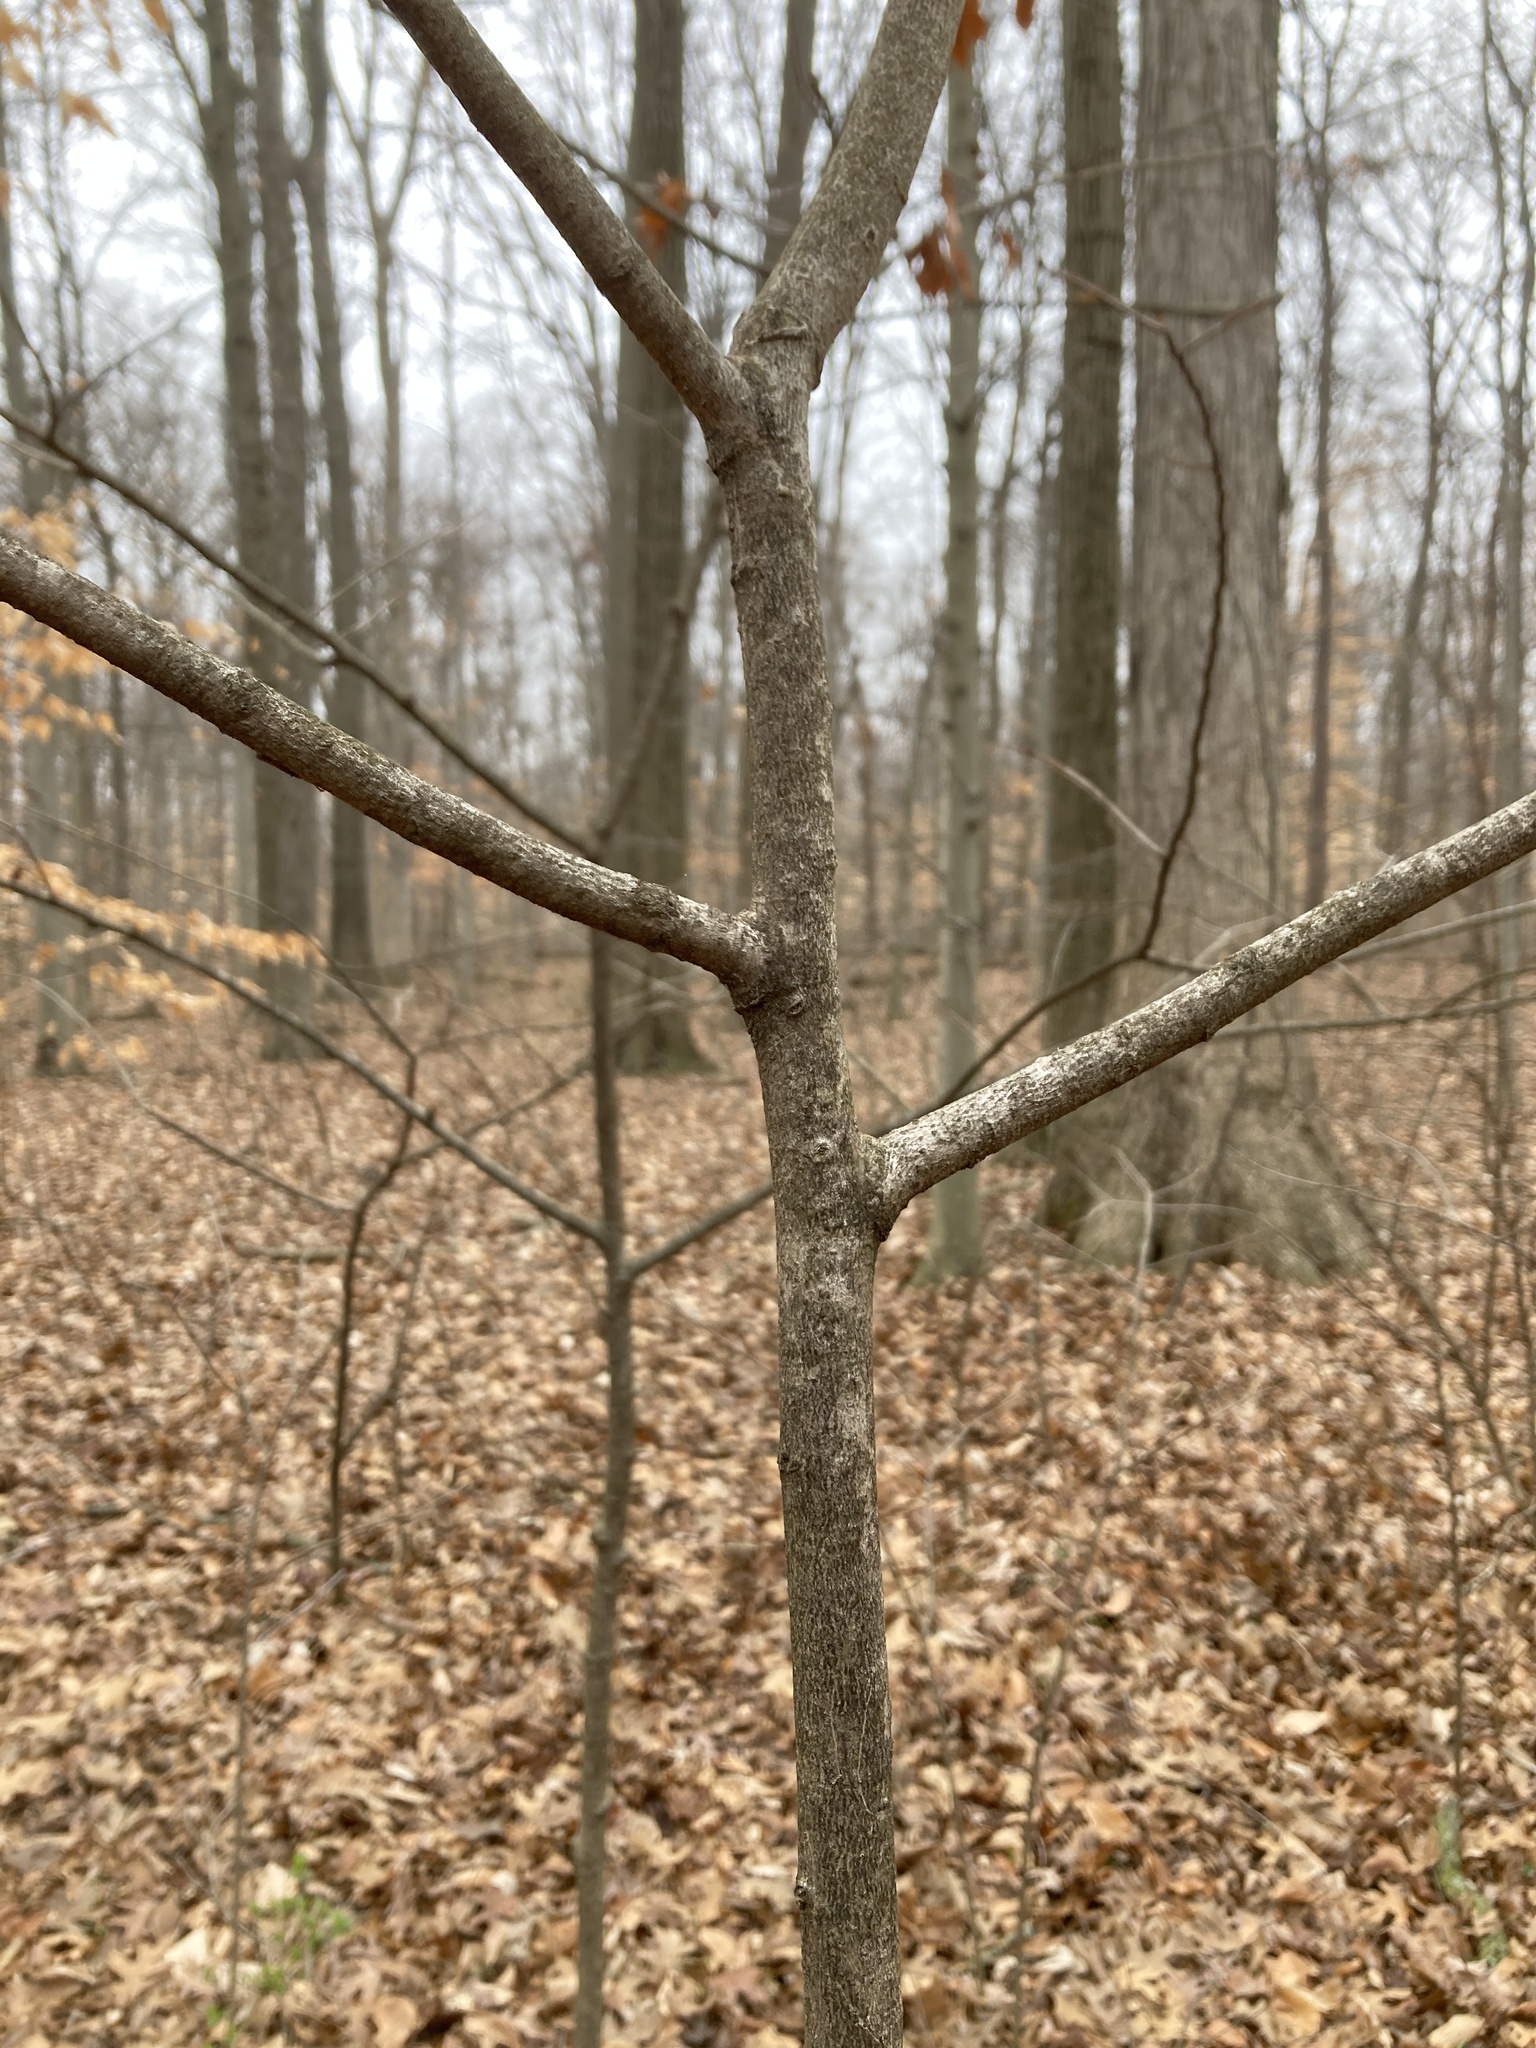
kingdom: Plantae
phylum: Tracheophyta
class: Magnoliopsida
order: Magnoliales
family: Annonaceae
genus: Asimina
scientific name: Asimina triloba
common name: Dog-banana
